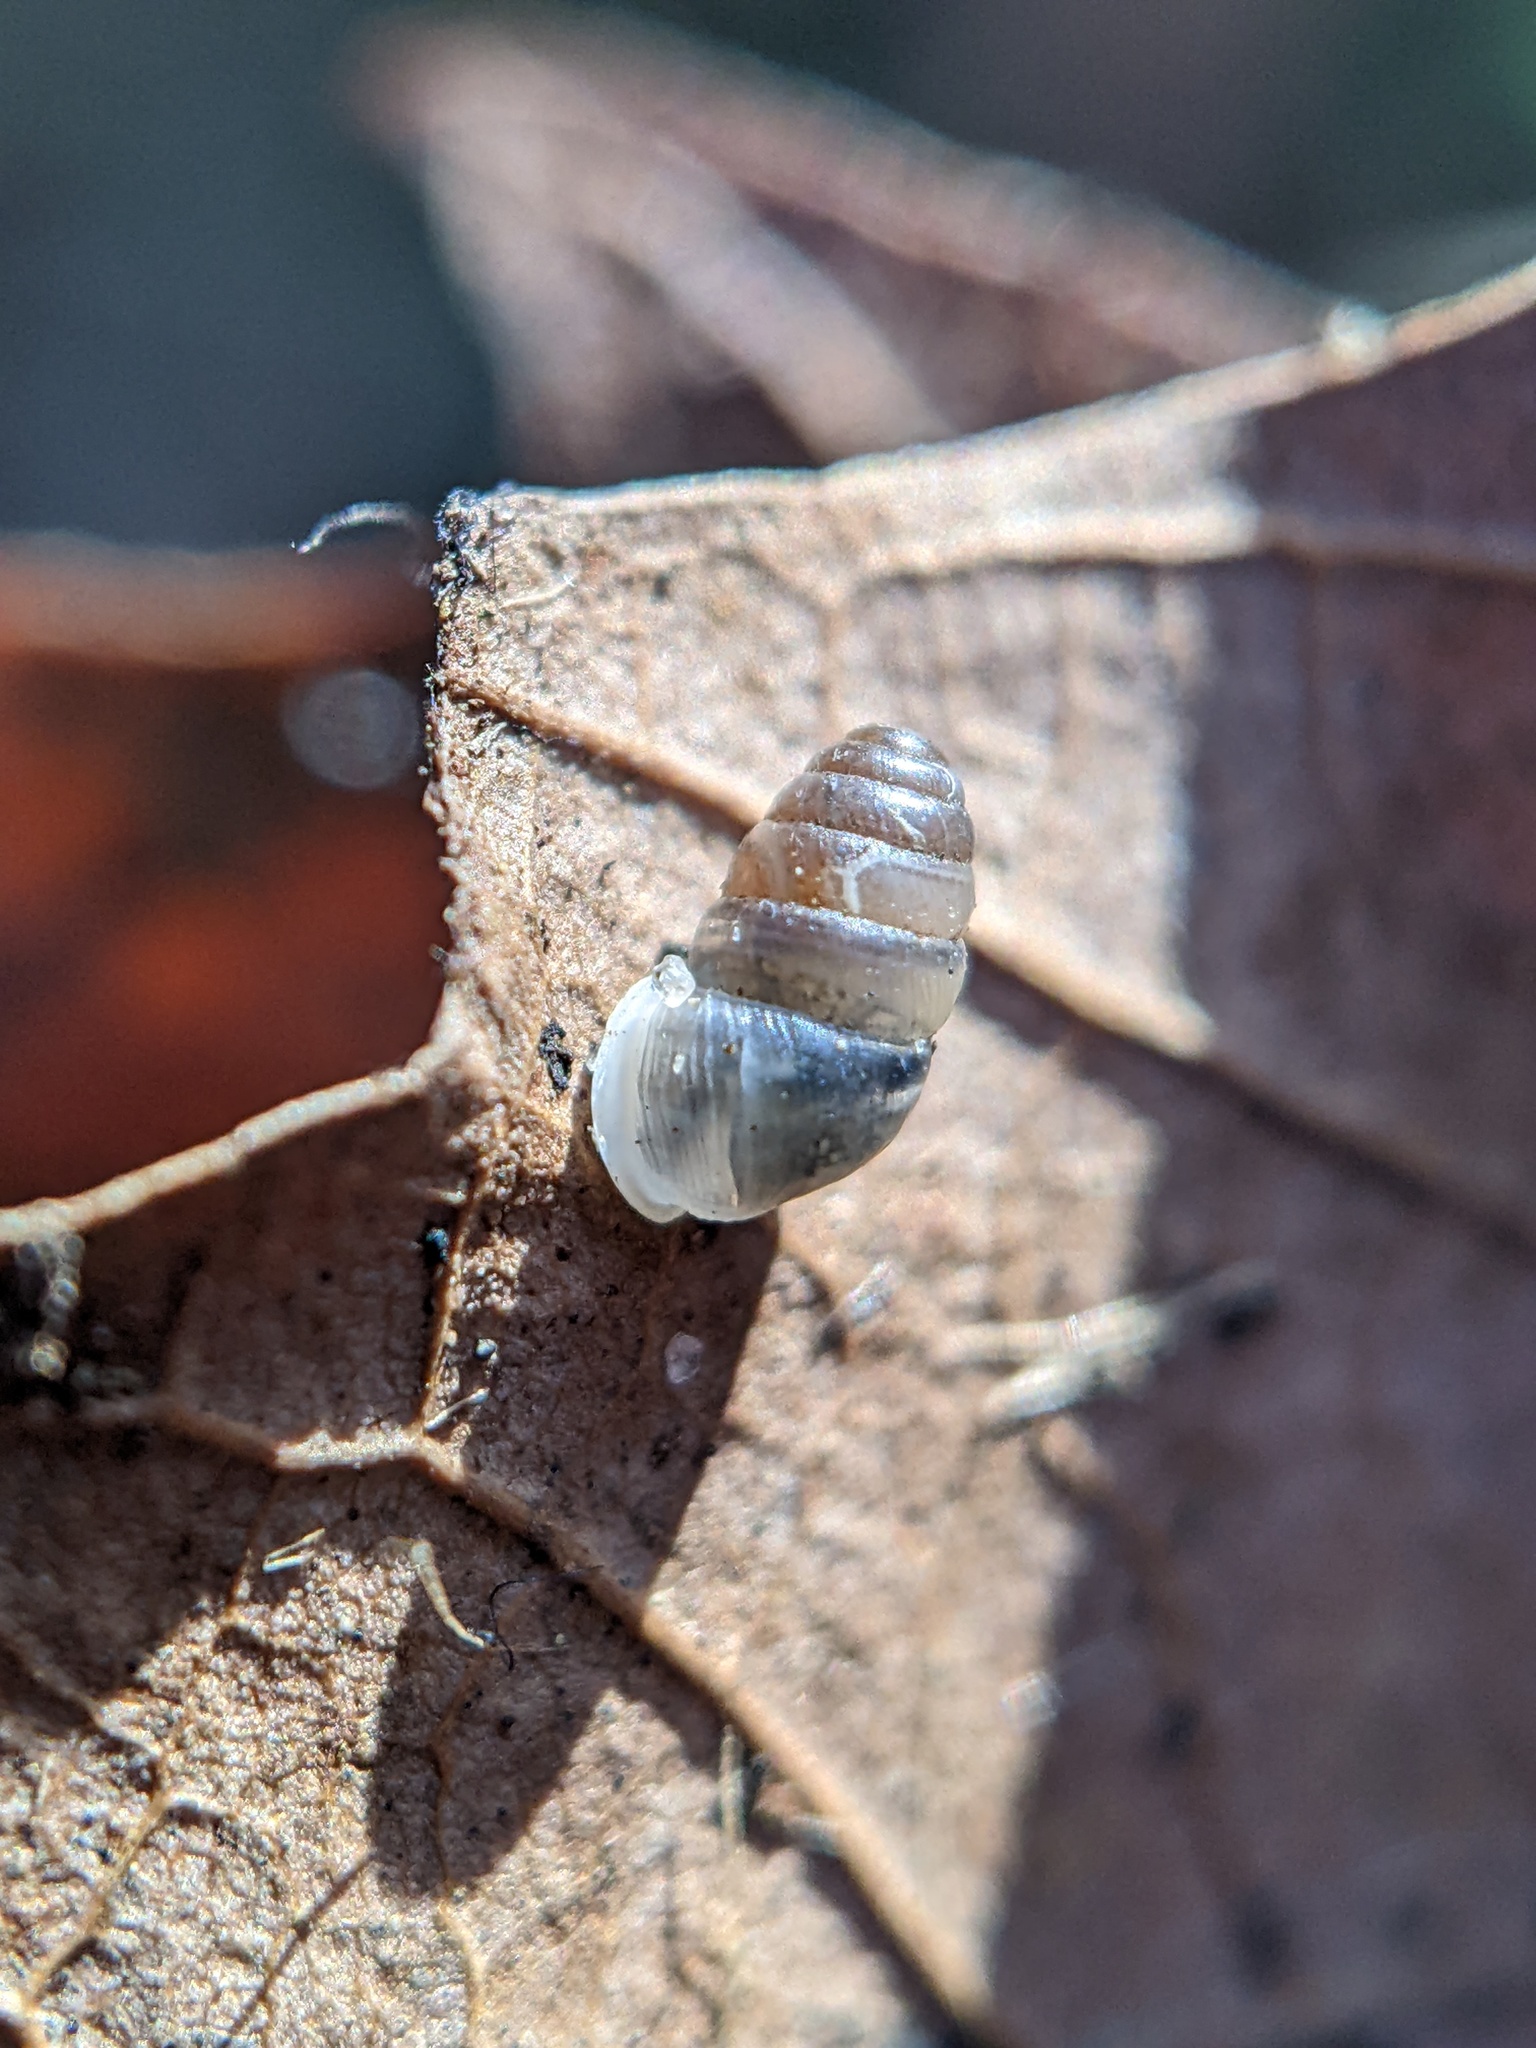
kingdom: Animalia
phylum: Mollusca
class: Gastropoda
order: Stylommatophora
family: Lauriidae
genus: Lauria
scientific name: Lauria cylindracea
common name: Common chrysalis snail
